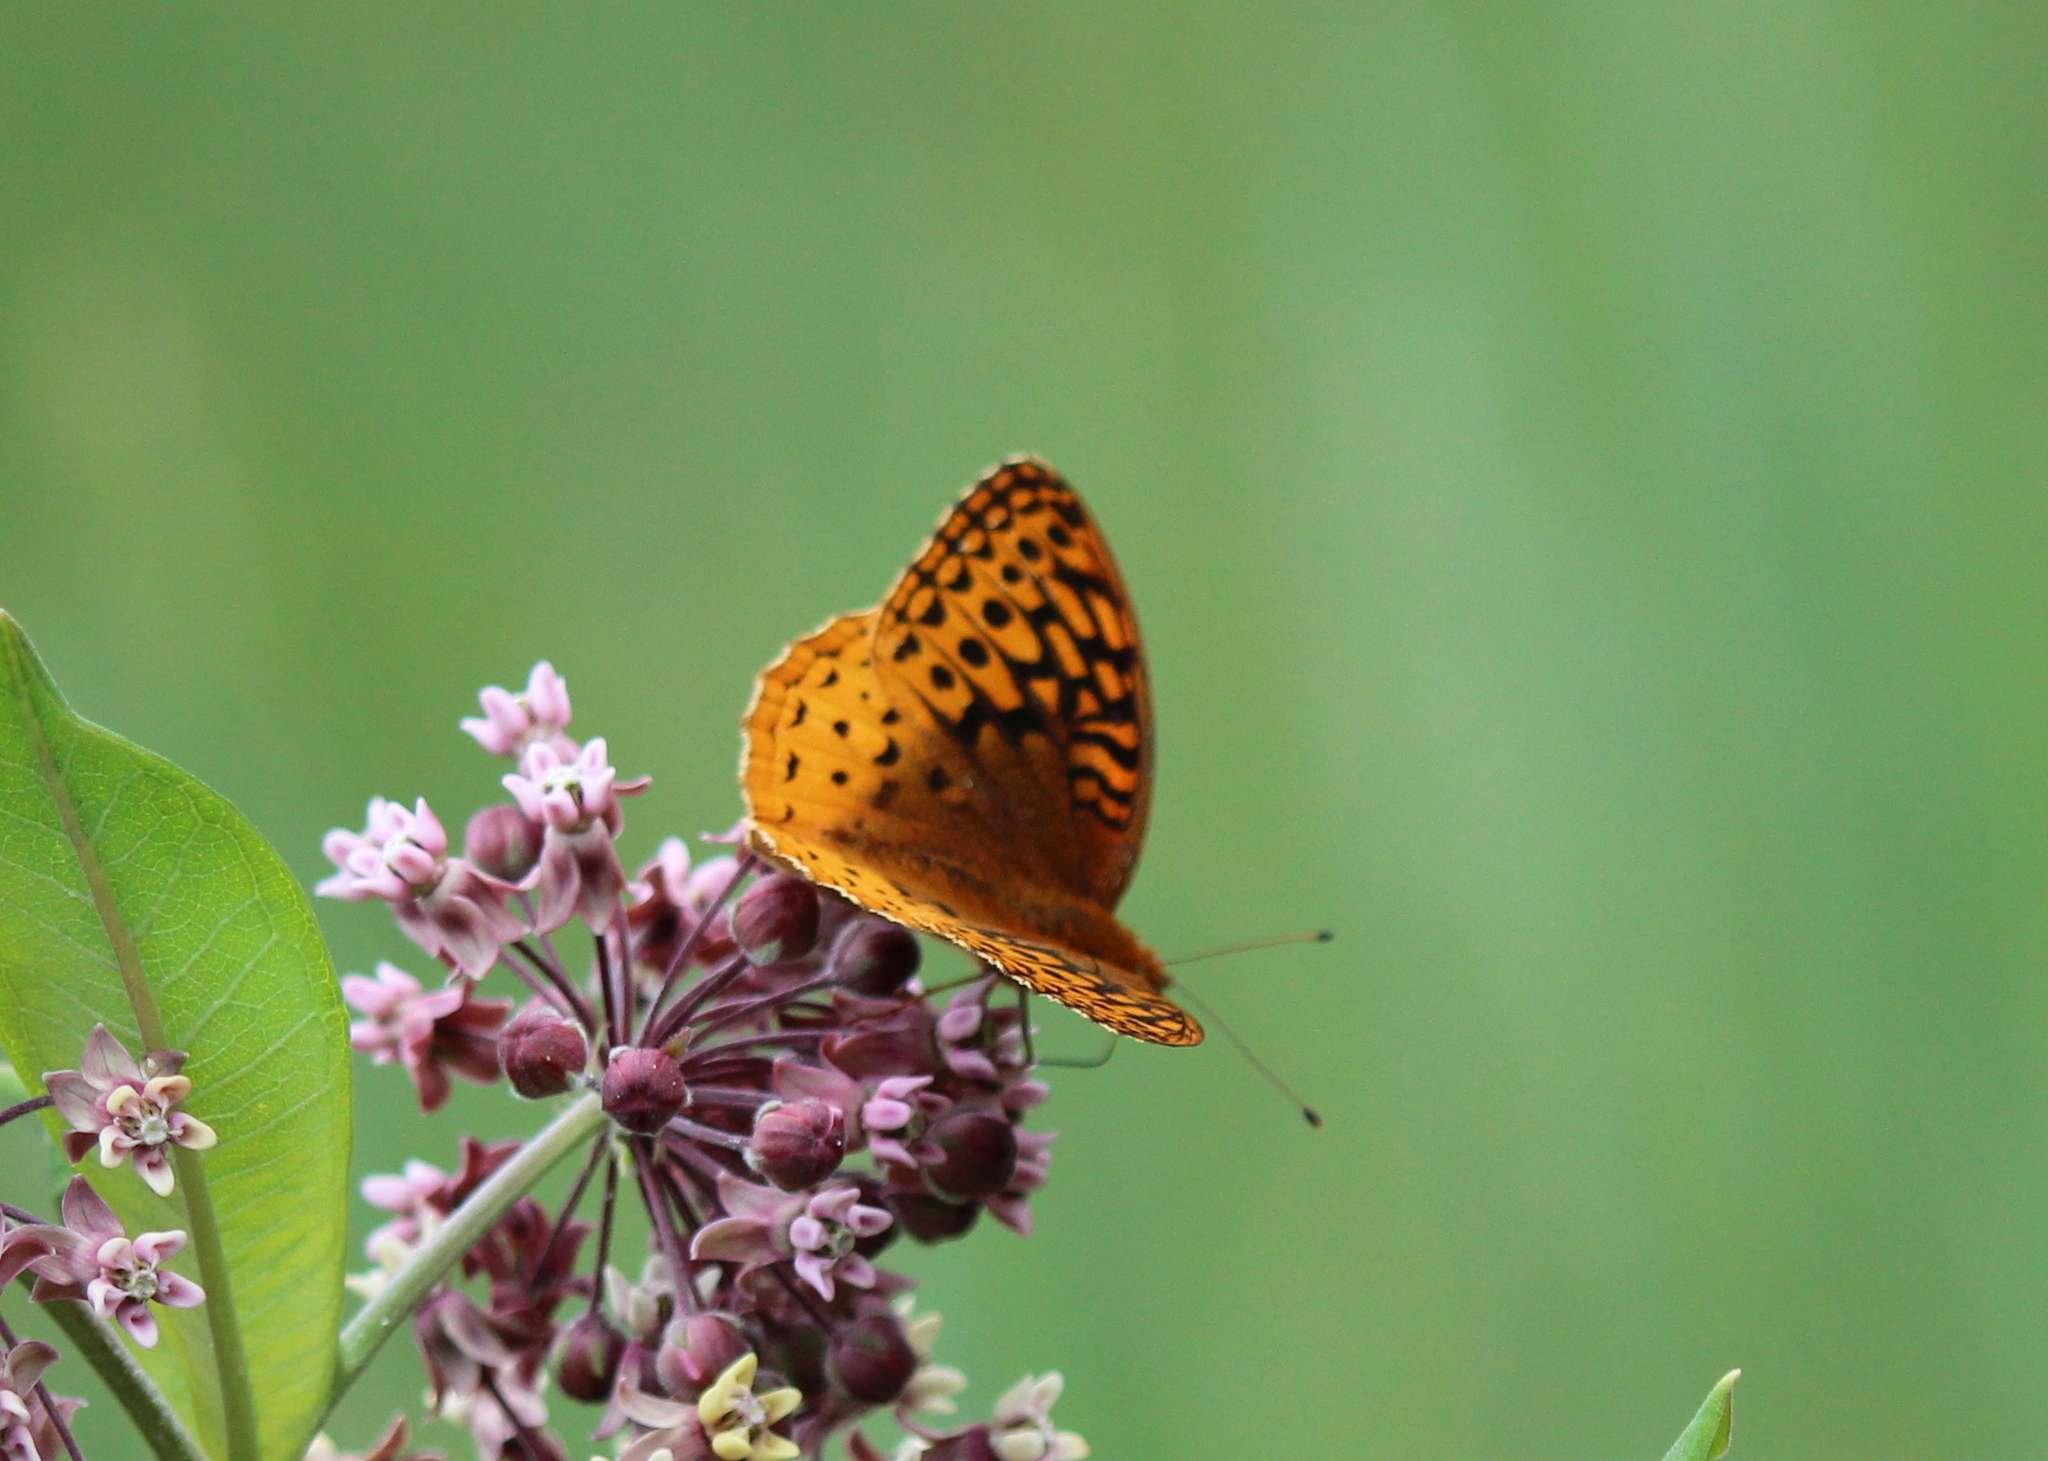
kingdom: Animalia
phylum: Arthropoda
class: Insecta
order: Lepidoptera
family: Nymphalidae
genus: Speyeria
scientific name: Speyeria cybele
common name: Great spangled fritillary
